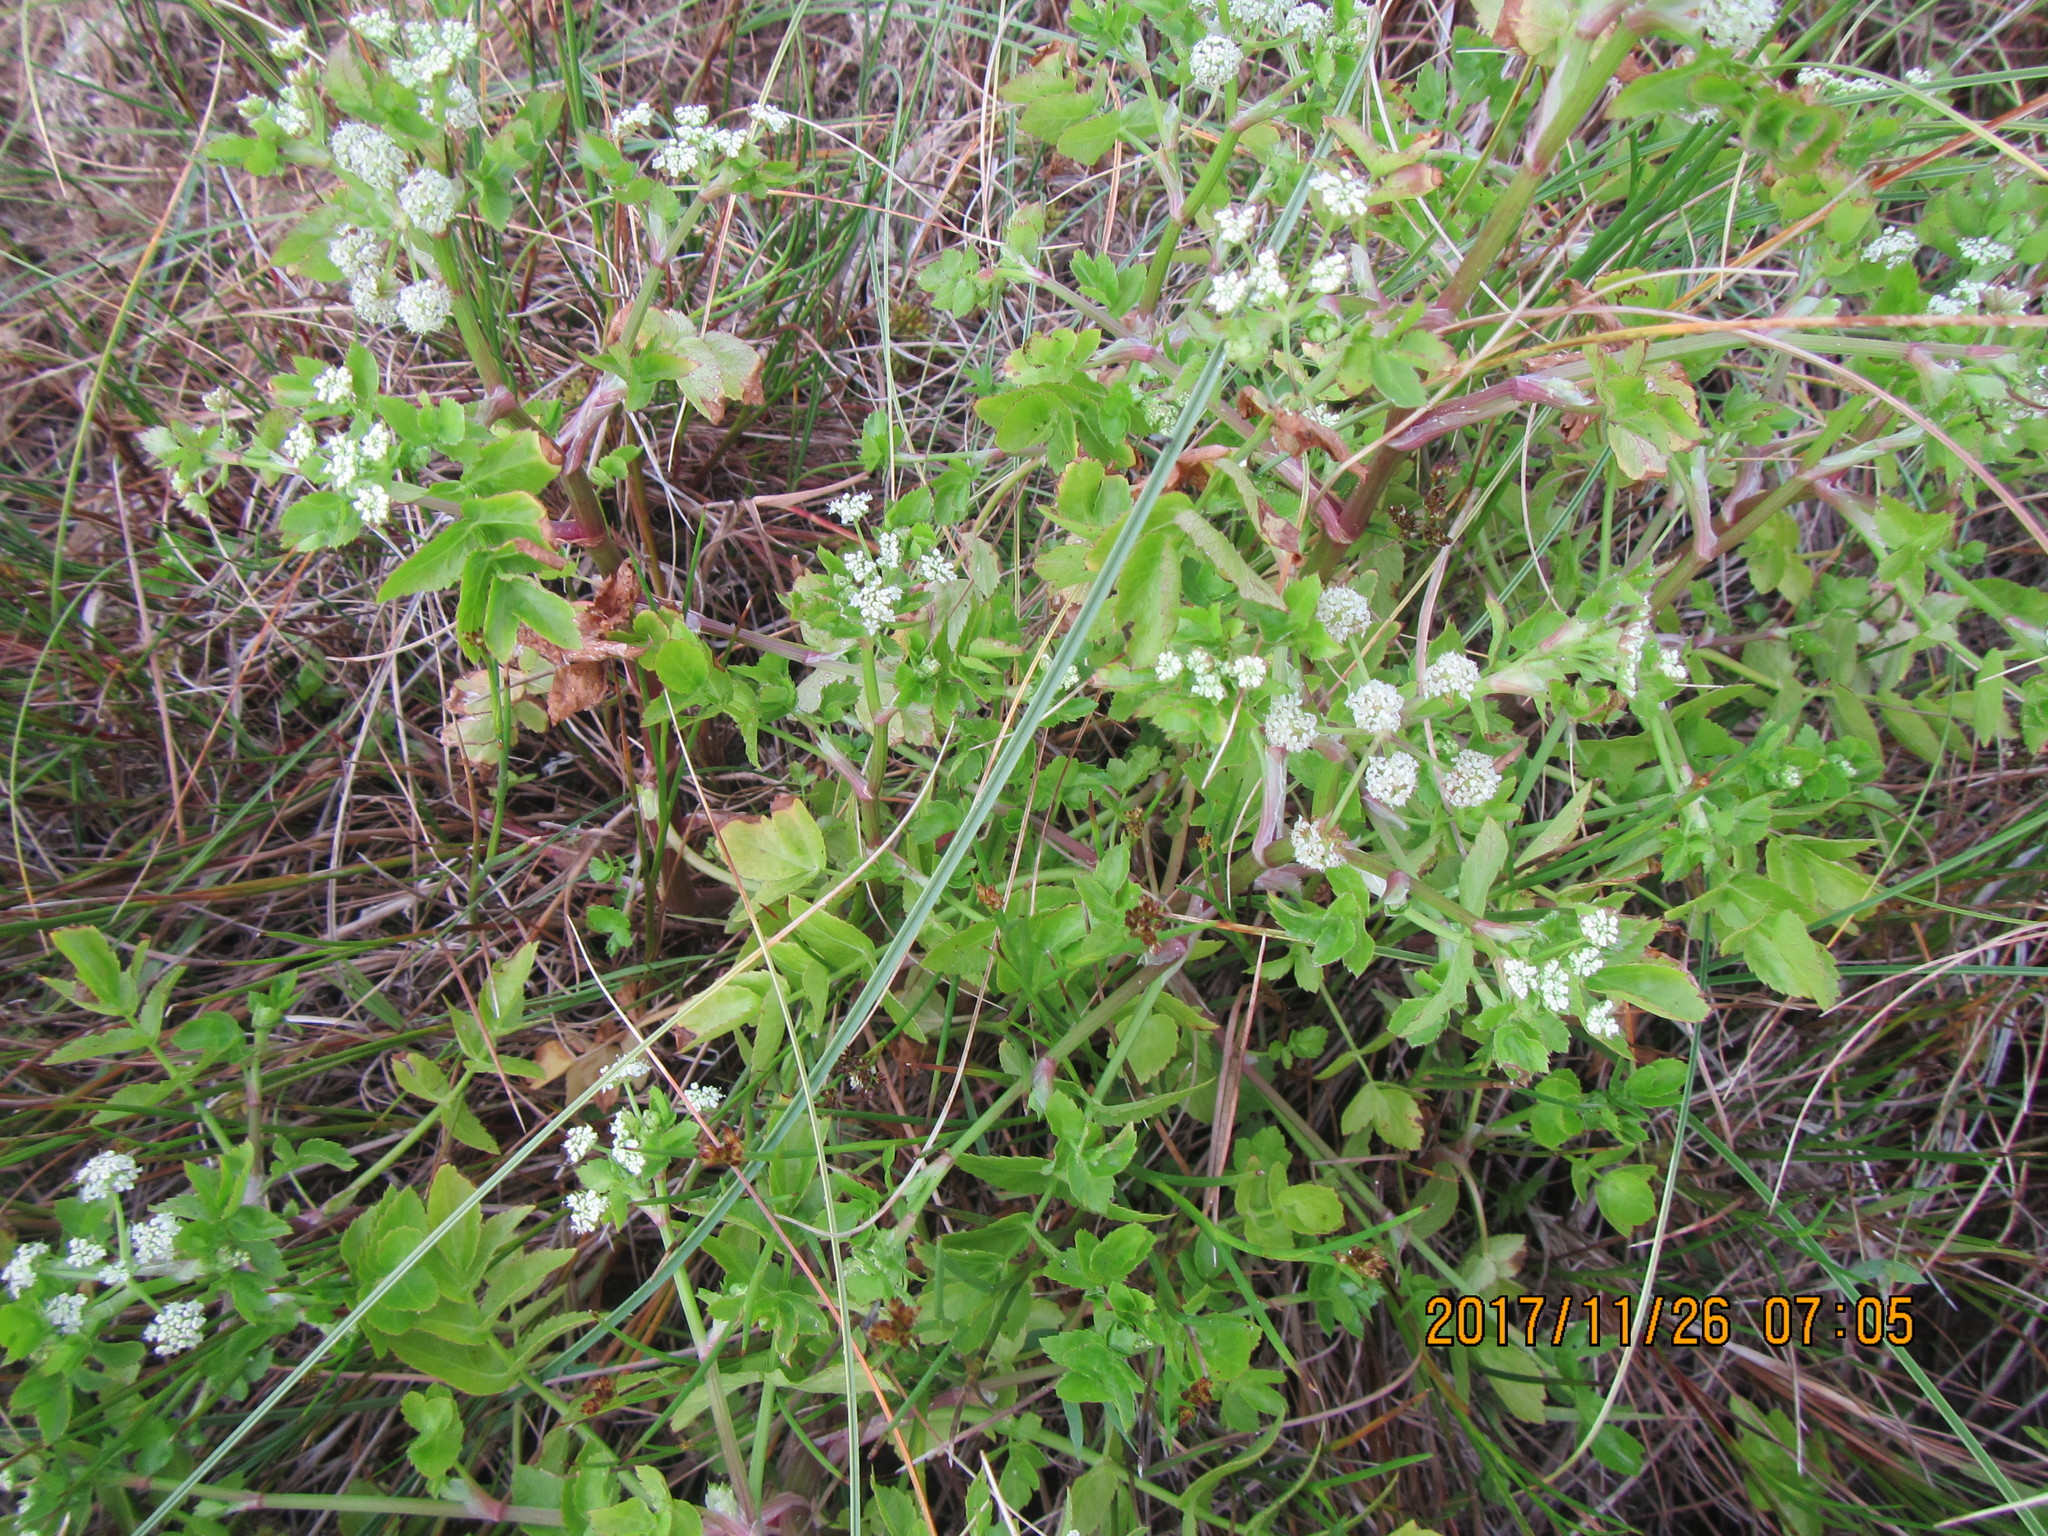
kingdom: Plantae
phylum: Tracheophyta
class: Magnoliopsida
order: Apiales
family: Apiaceae
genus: Helosciadium
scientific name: Helosciadium nodiflorum
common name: Fool's-watercress
